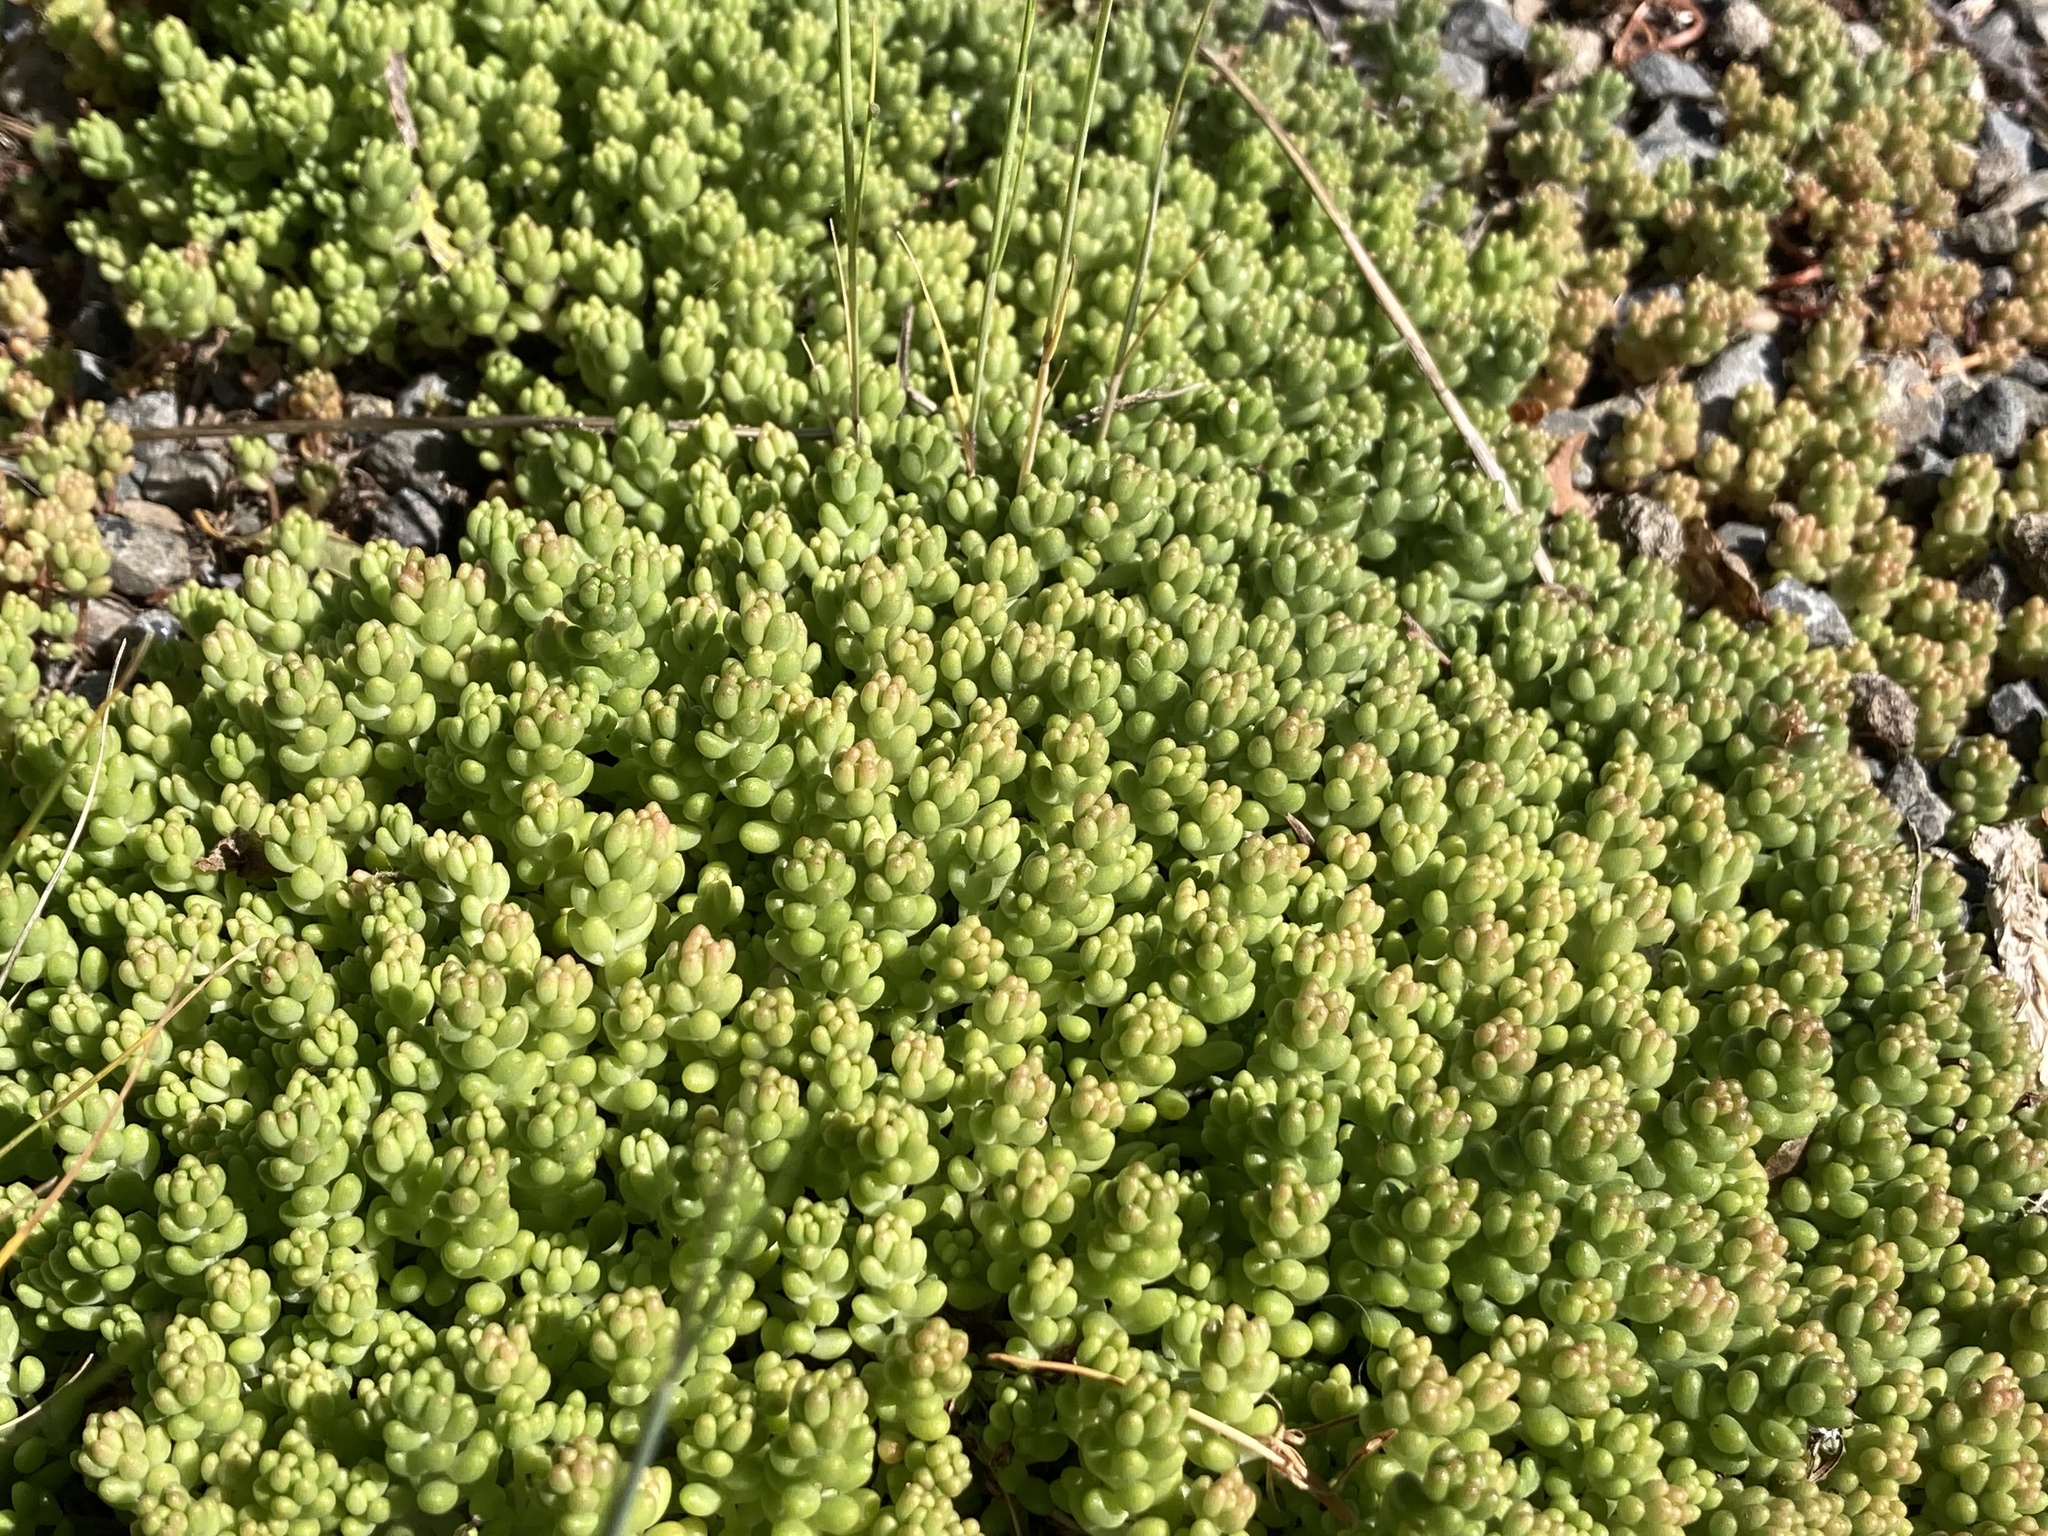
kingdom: Plantae
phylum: Tracheophyta
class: Magnoliopsida
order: Saxifragales
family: Crassulaceae
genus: Sedum
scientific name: Sedum album
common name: White stonecrop
